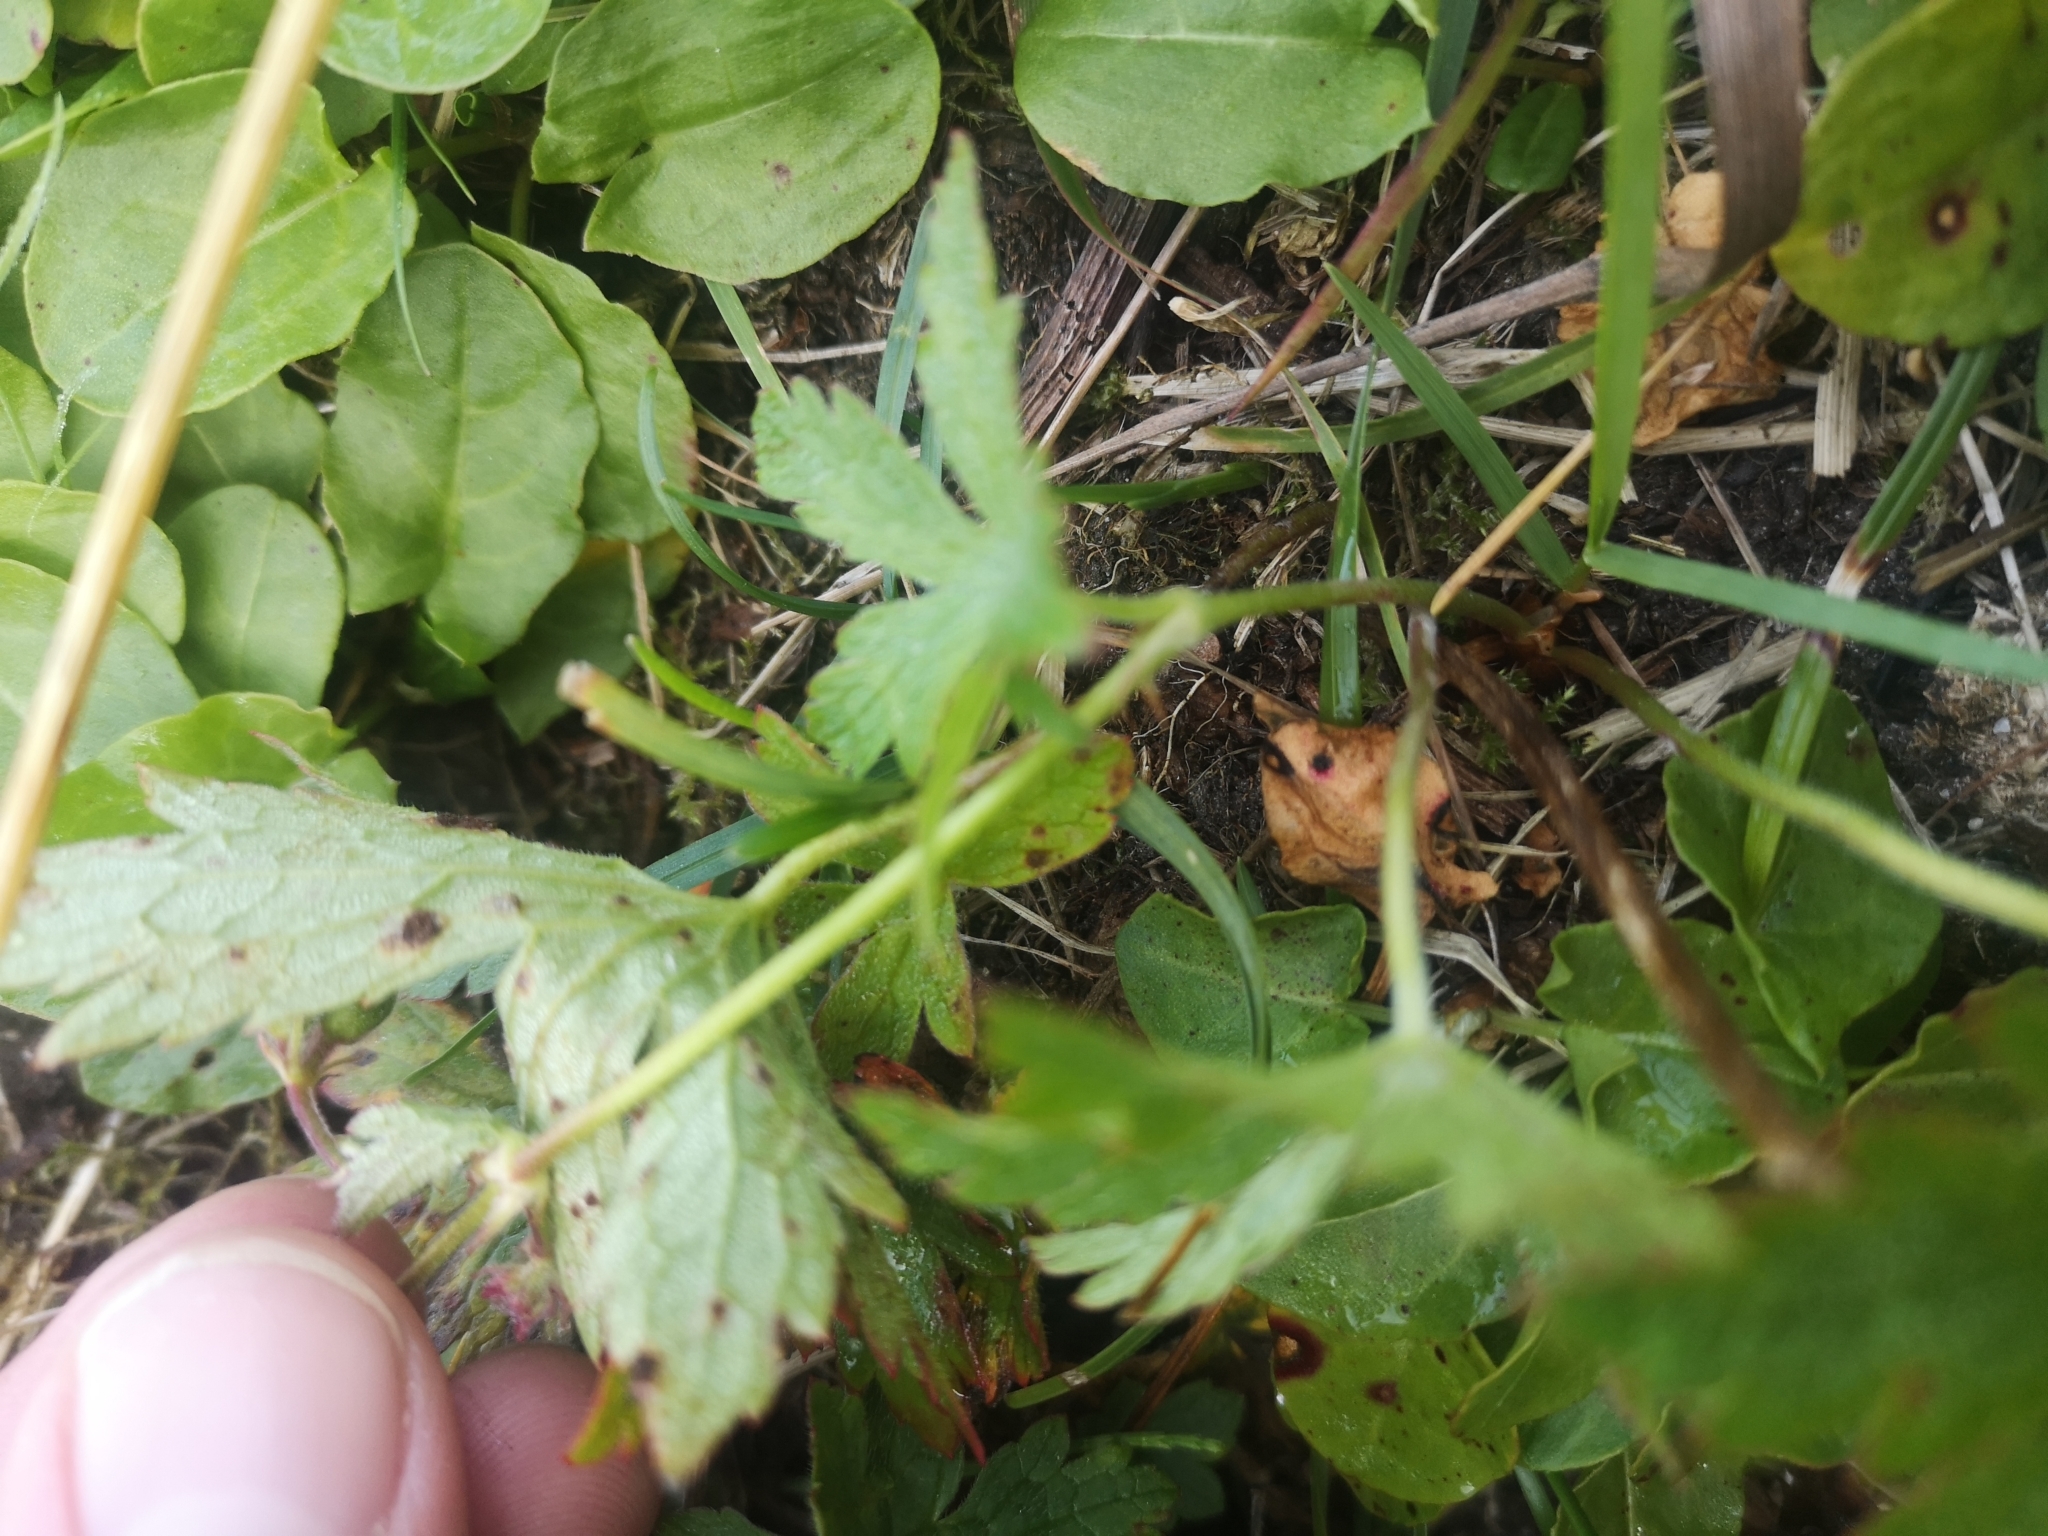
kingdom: Plantae
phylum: Tracheophyta
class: Magnoliopsida
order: Geraniales
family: Geraniaceae
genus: Geranium
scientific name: Geranium sylvaticum
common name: Wood crane's-bill
